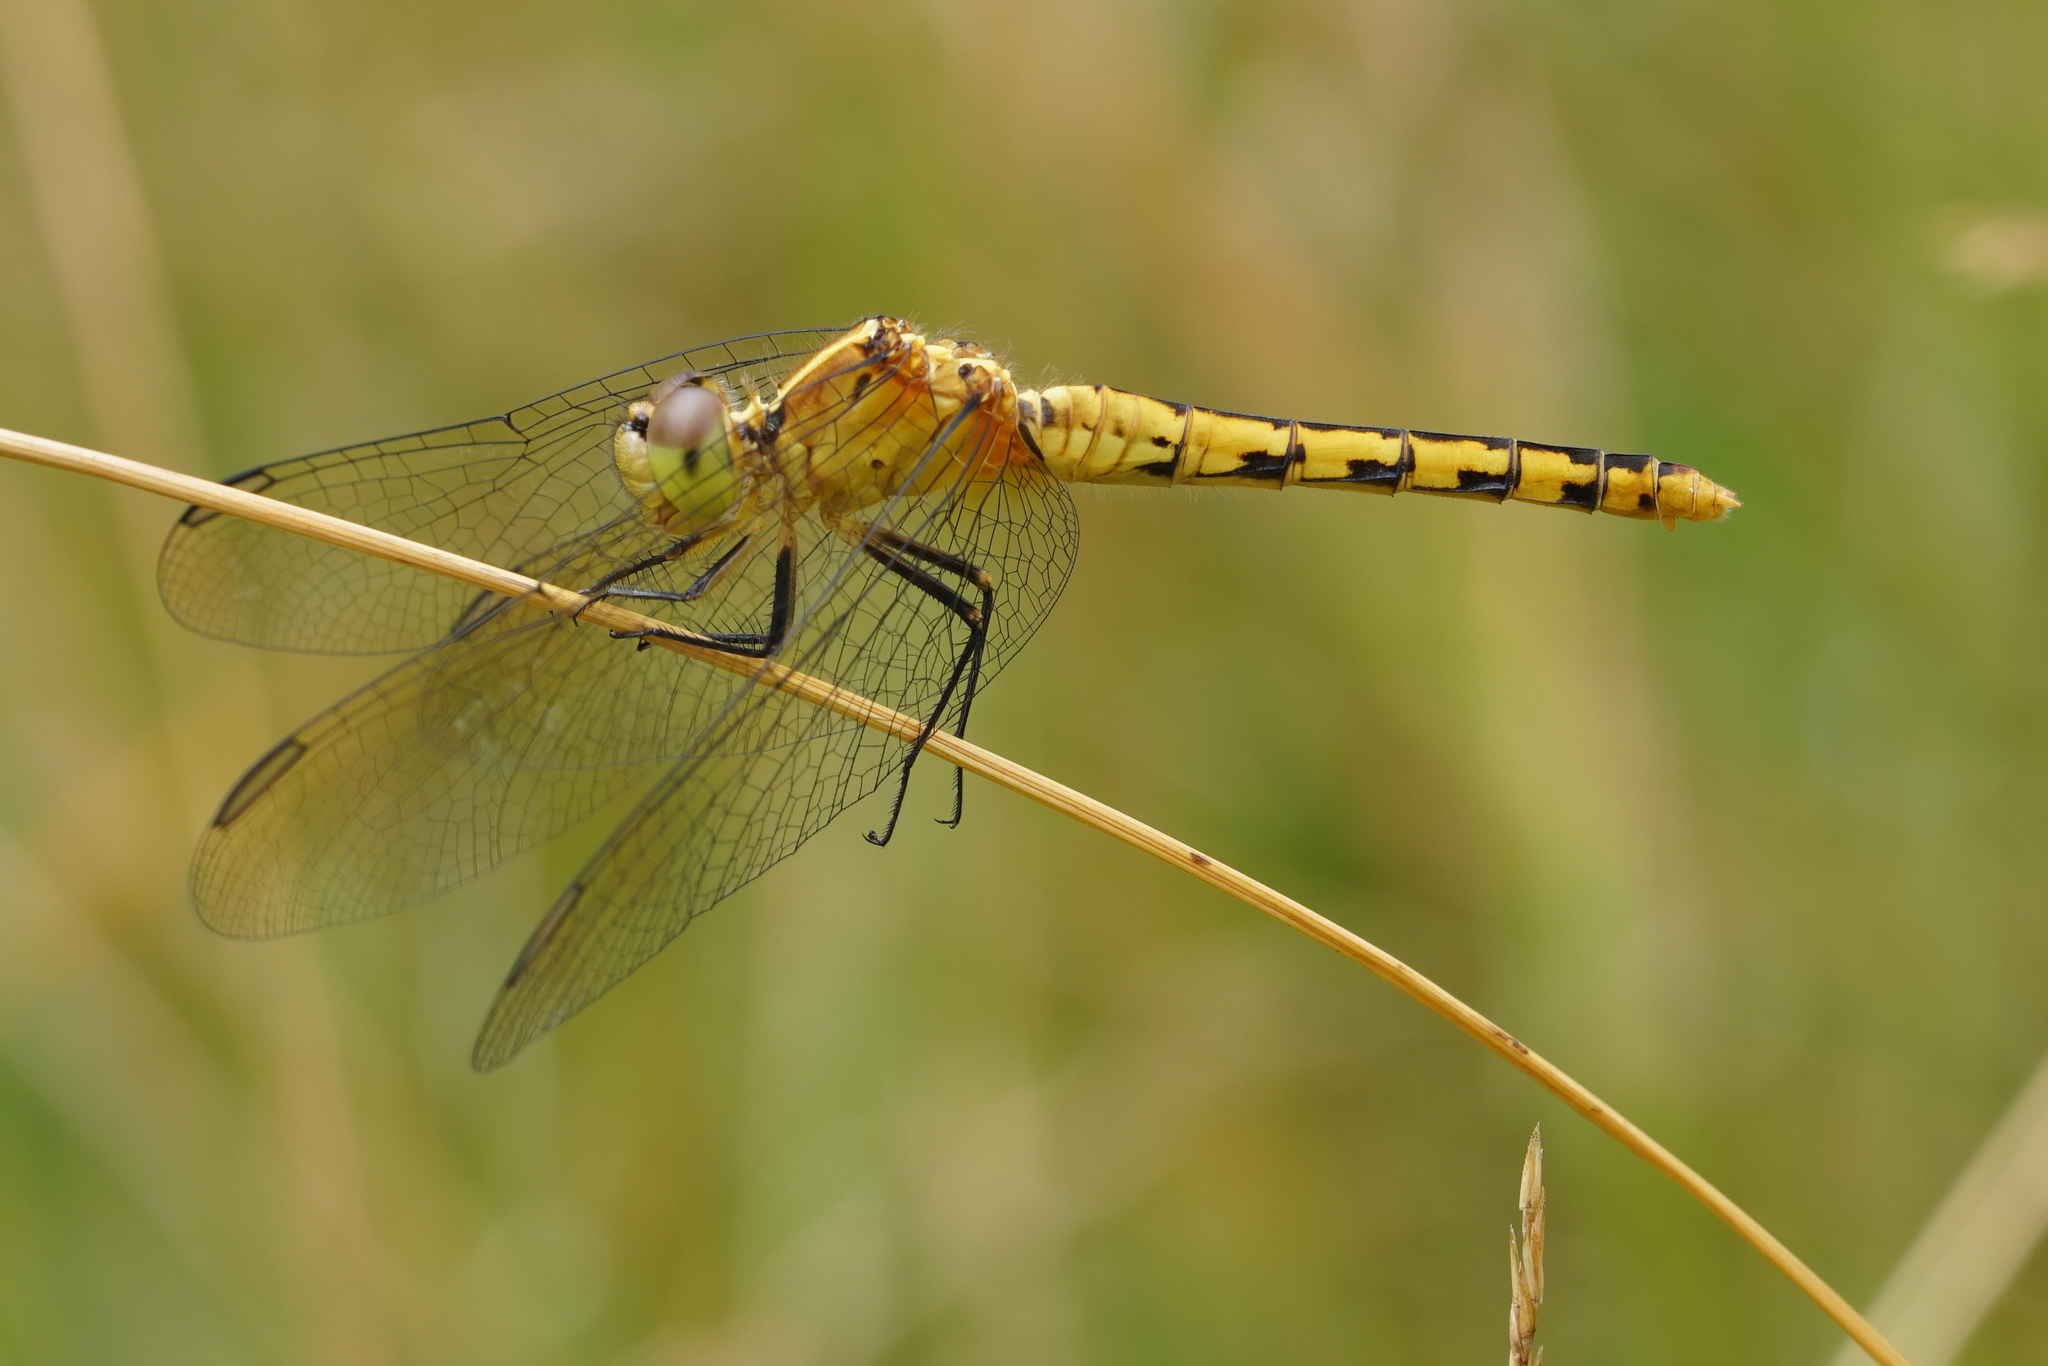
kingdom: Animalia
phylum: Arthropoda
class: Insecta
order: Odonata
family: Libellulidae
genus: Diplacodes
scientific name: Diplacodes melanopsis
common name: Black-faced percher
